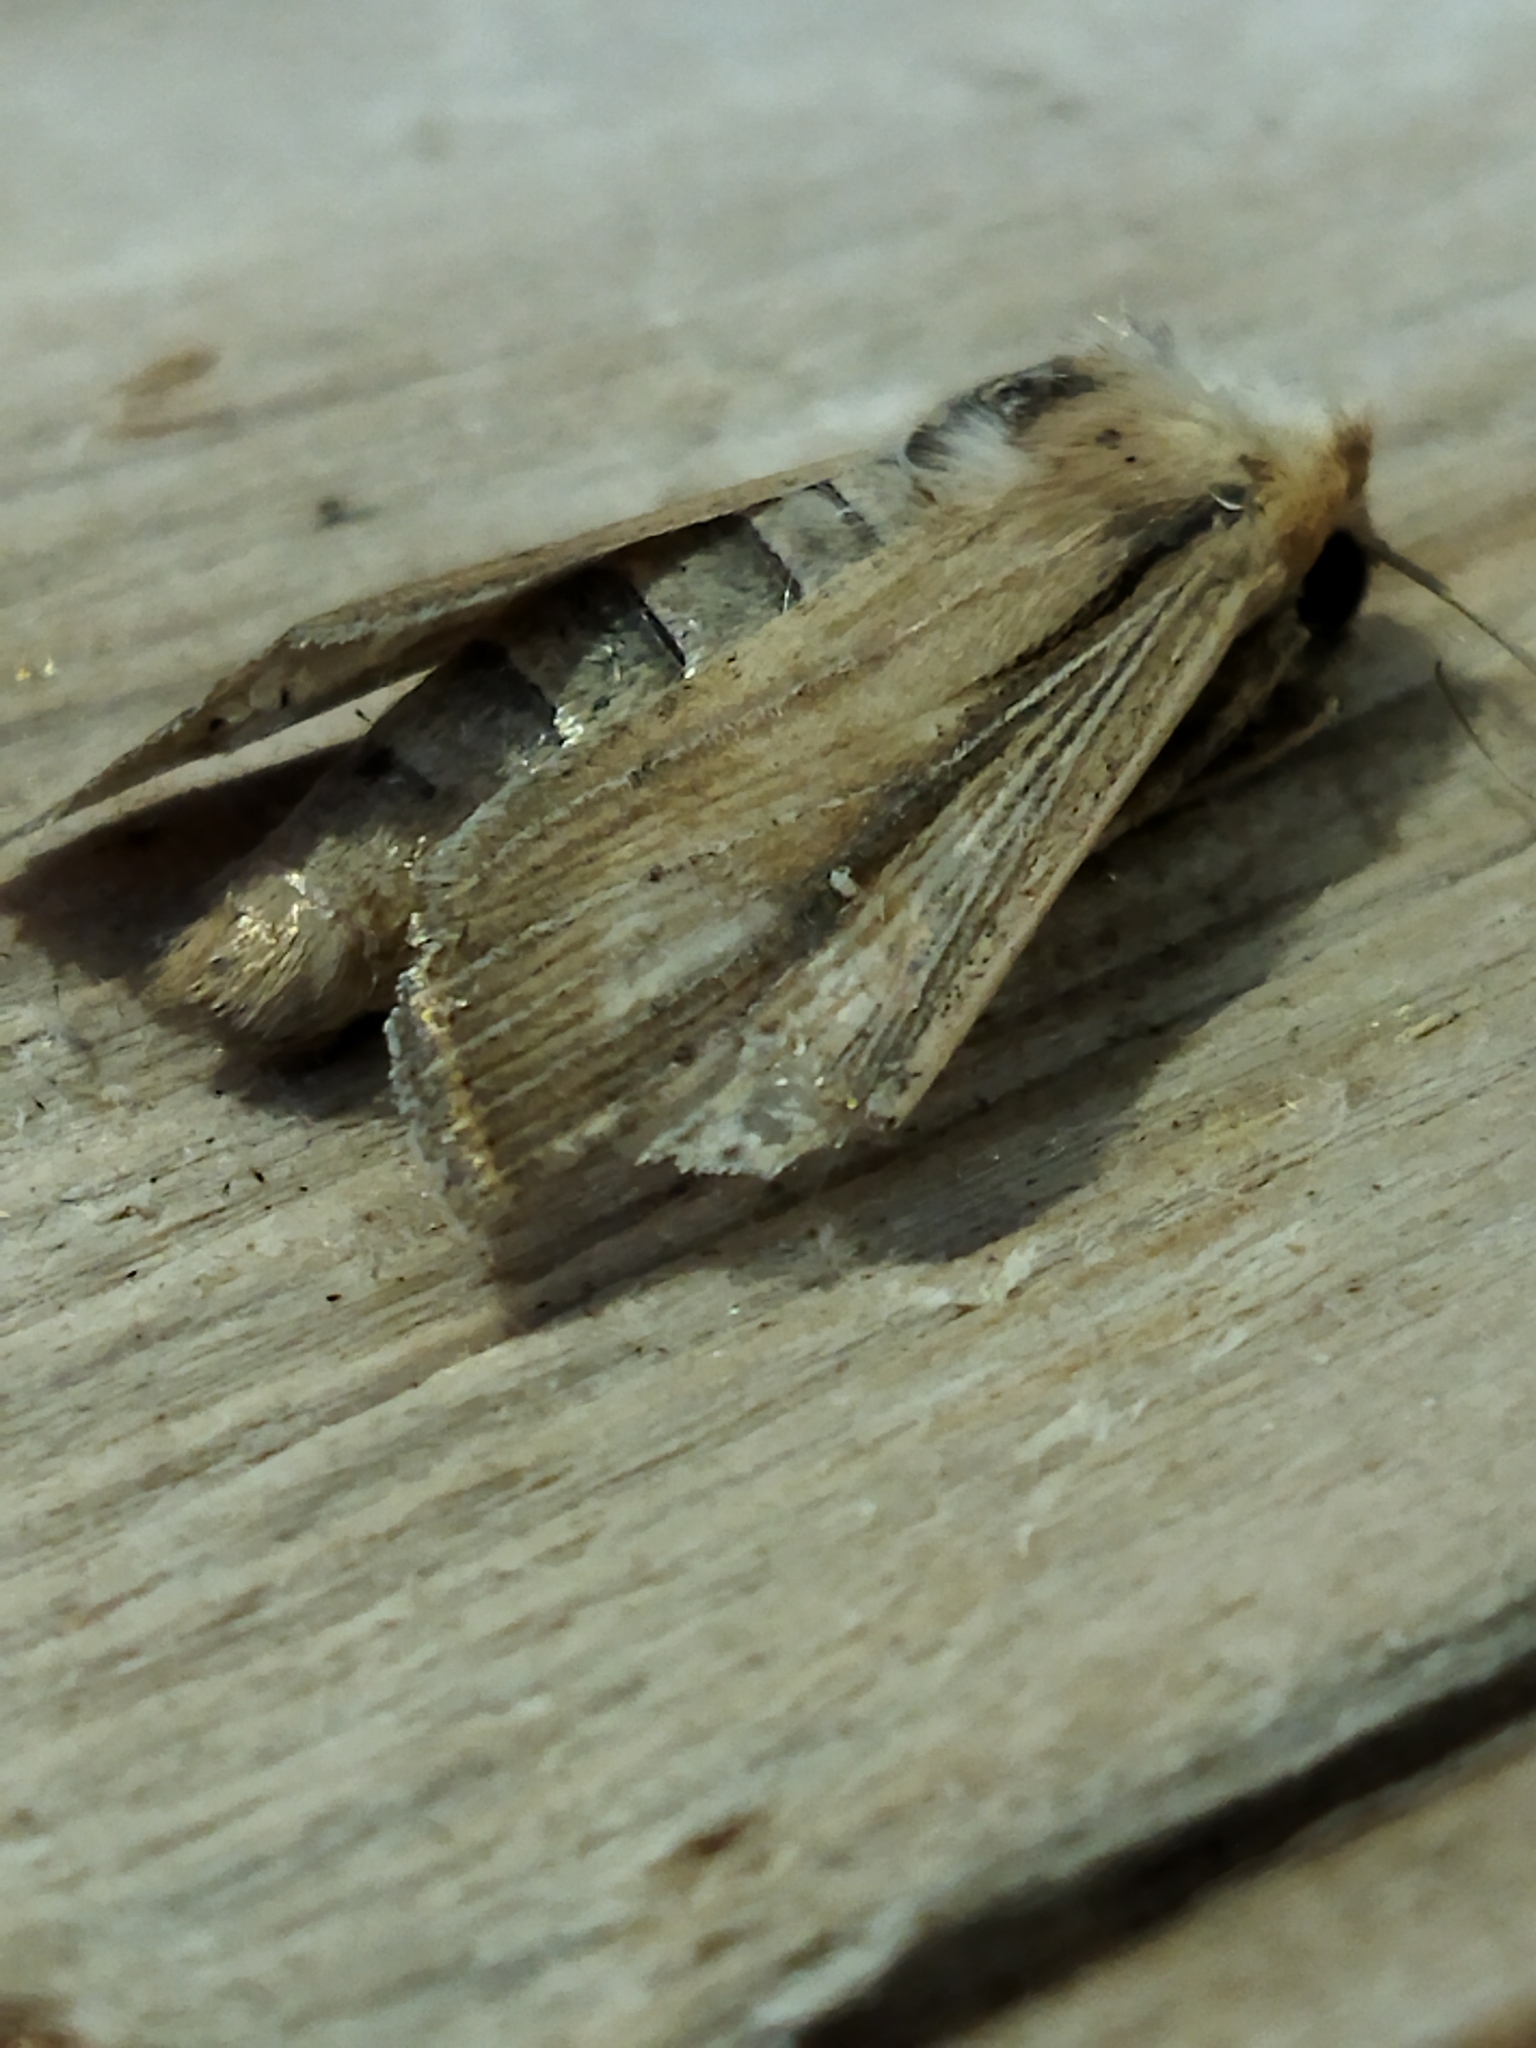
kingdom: Animalia
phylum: Arthropoda
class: Insecta
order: Lepidoptera
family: Noctuidae
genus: Leucania
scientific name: Leucania loreyi
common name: The cosmopolitan
